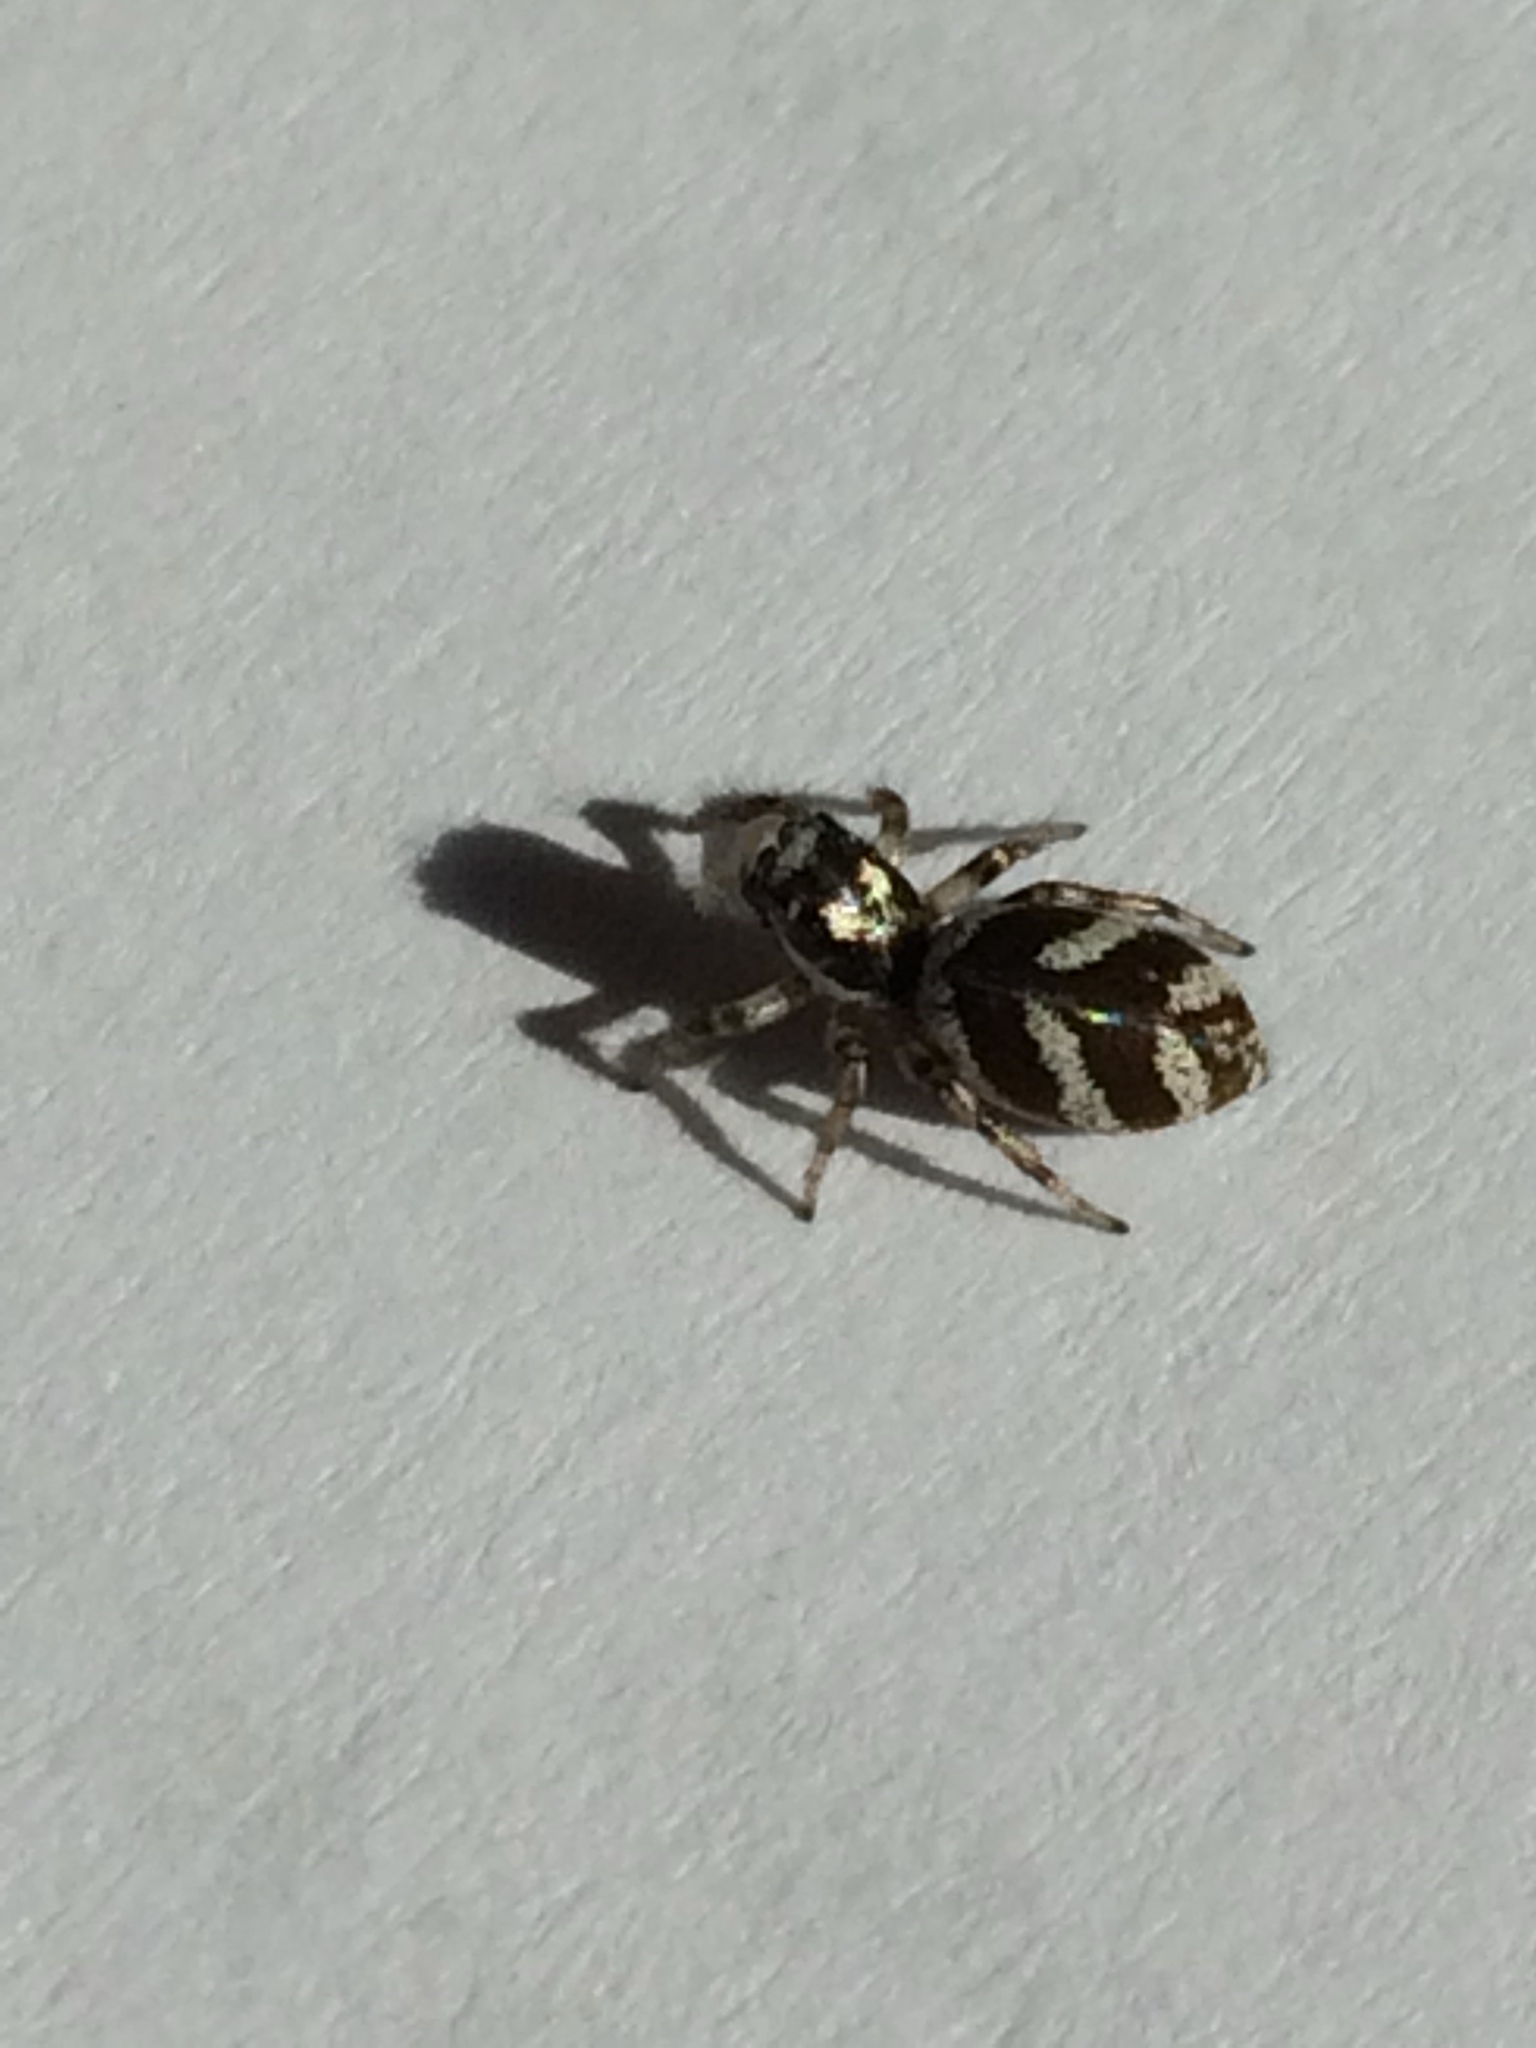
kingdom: Animalia
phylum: Arthropoda
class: Arachnida
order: Araneae
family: Salticidae
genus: Salticus
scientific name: Salticus scenicus
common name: Zebra jumper
